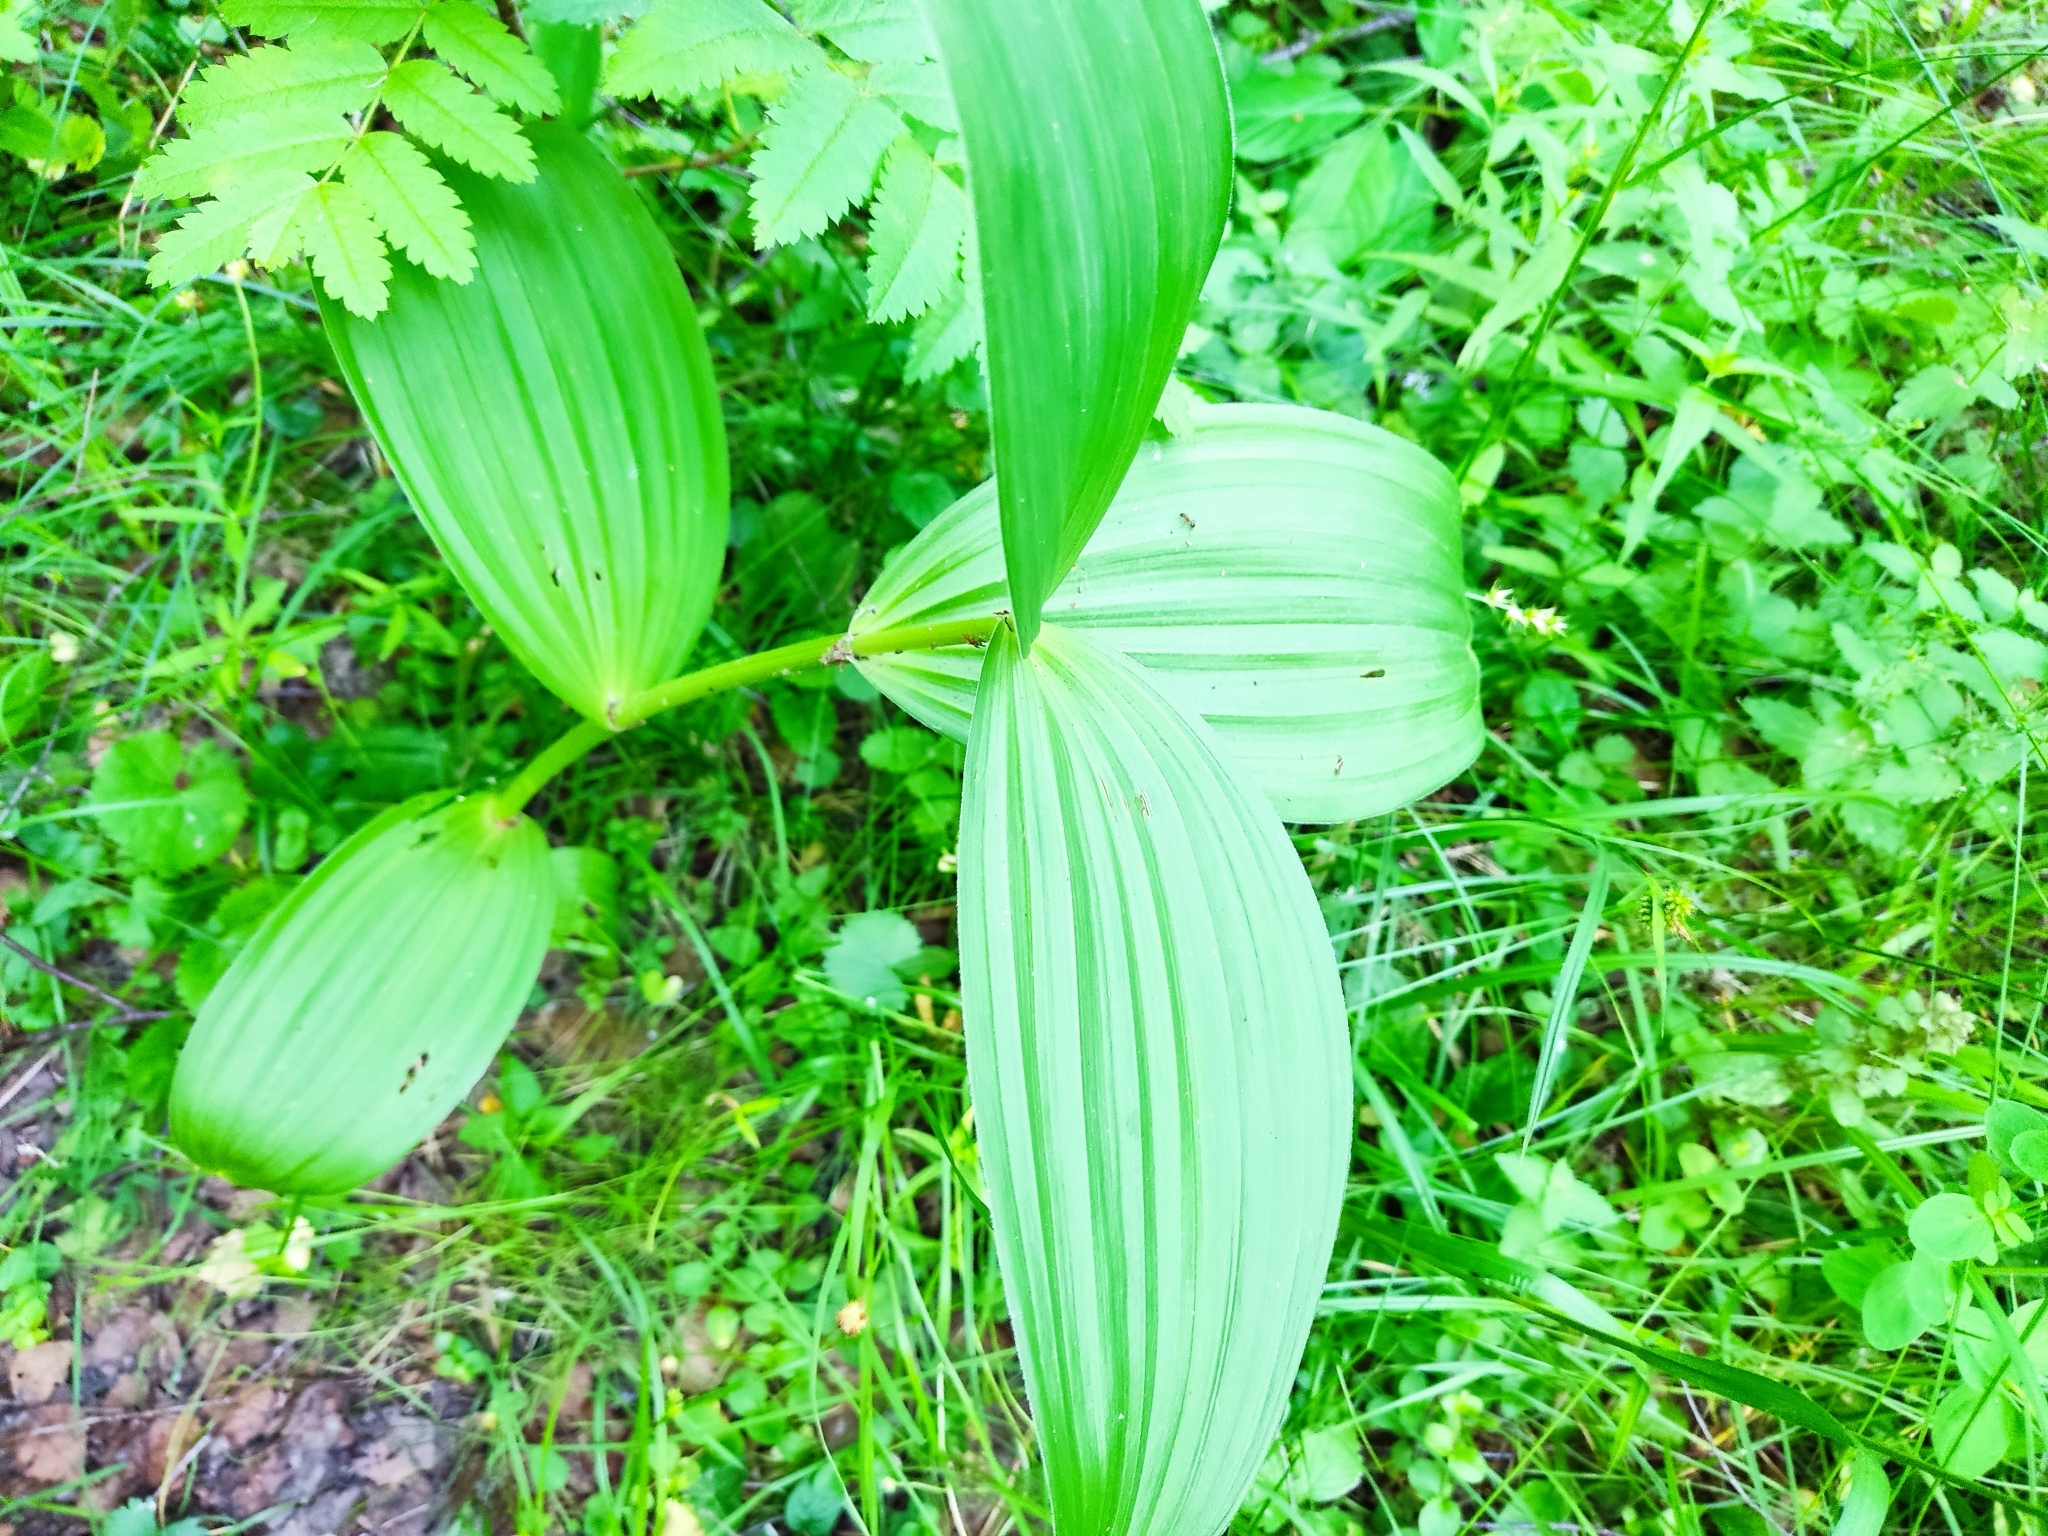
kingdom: Plantae
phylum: Tracheophyta
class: Liliopsida
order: Liliales
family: Melanthiaceae
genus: Veratrum
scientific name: Veratrum lobelianum
